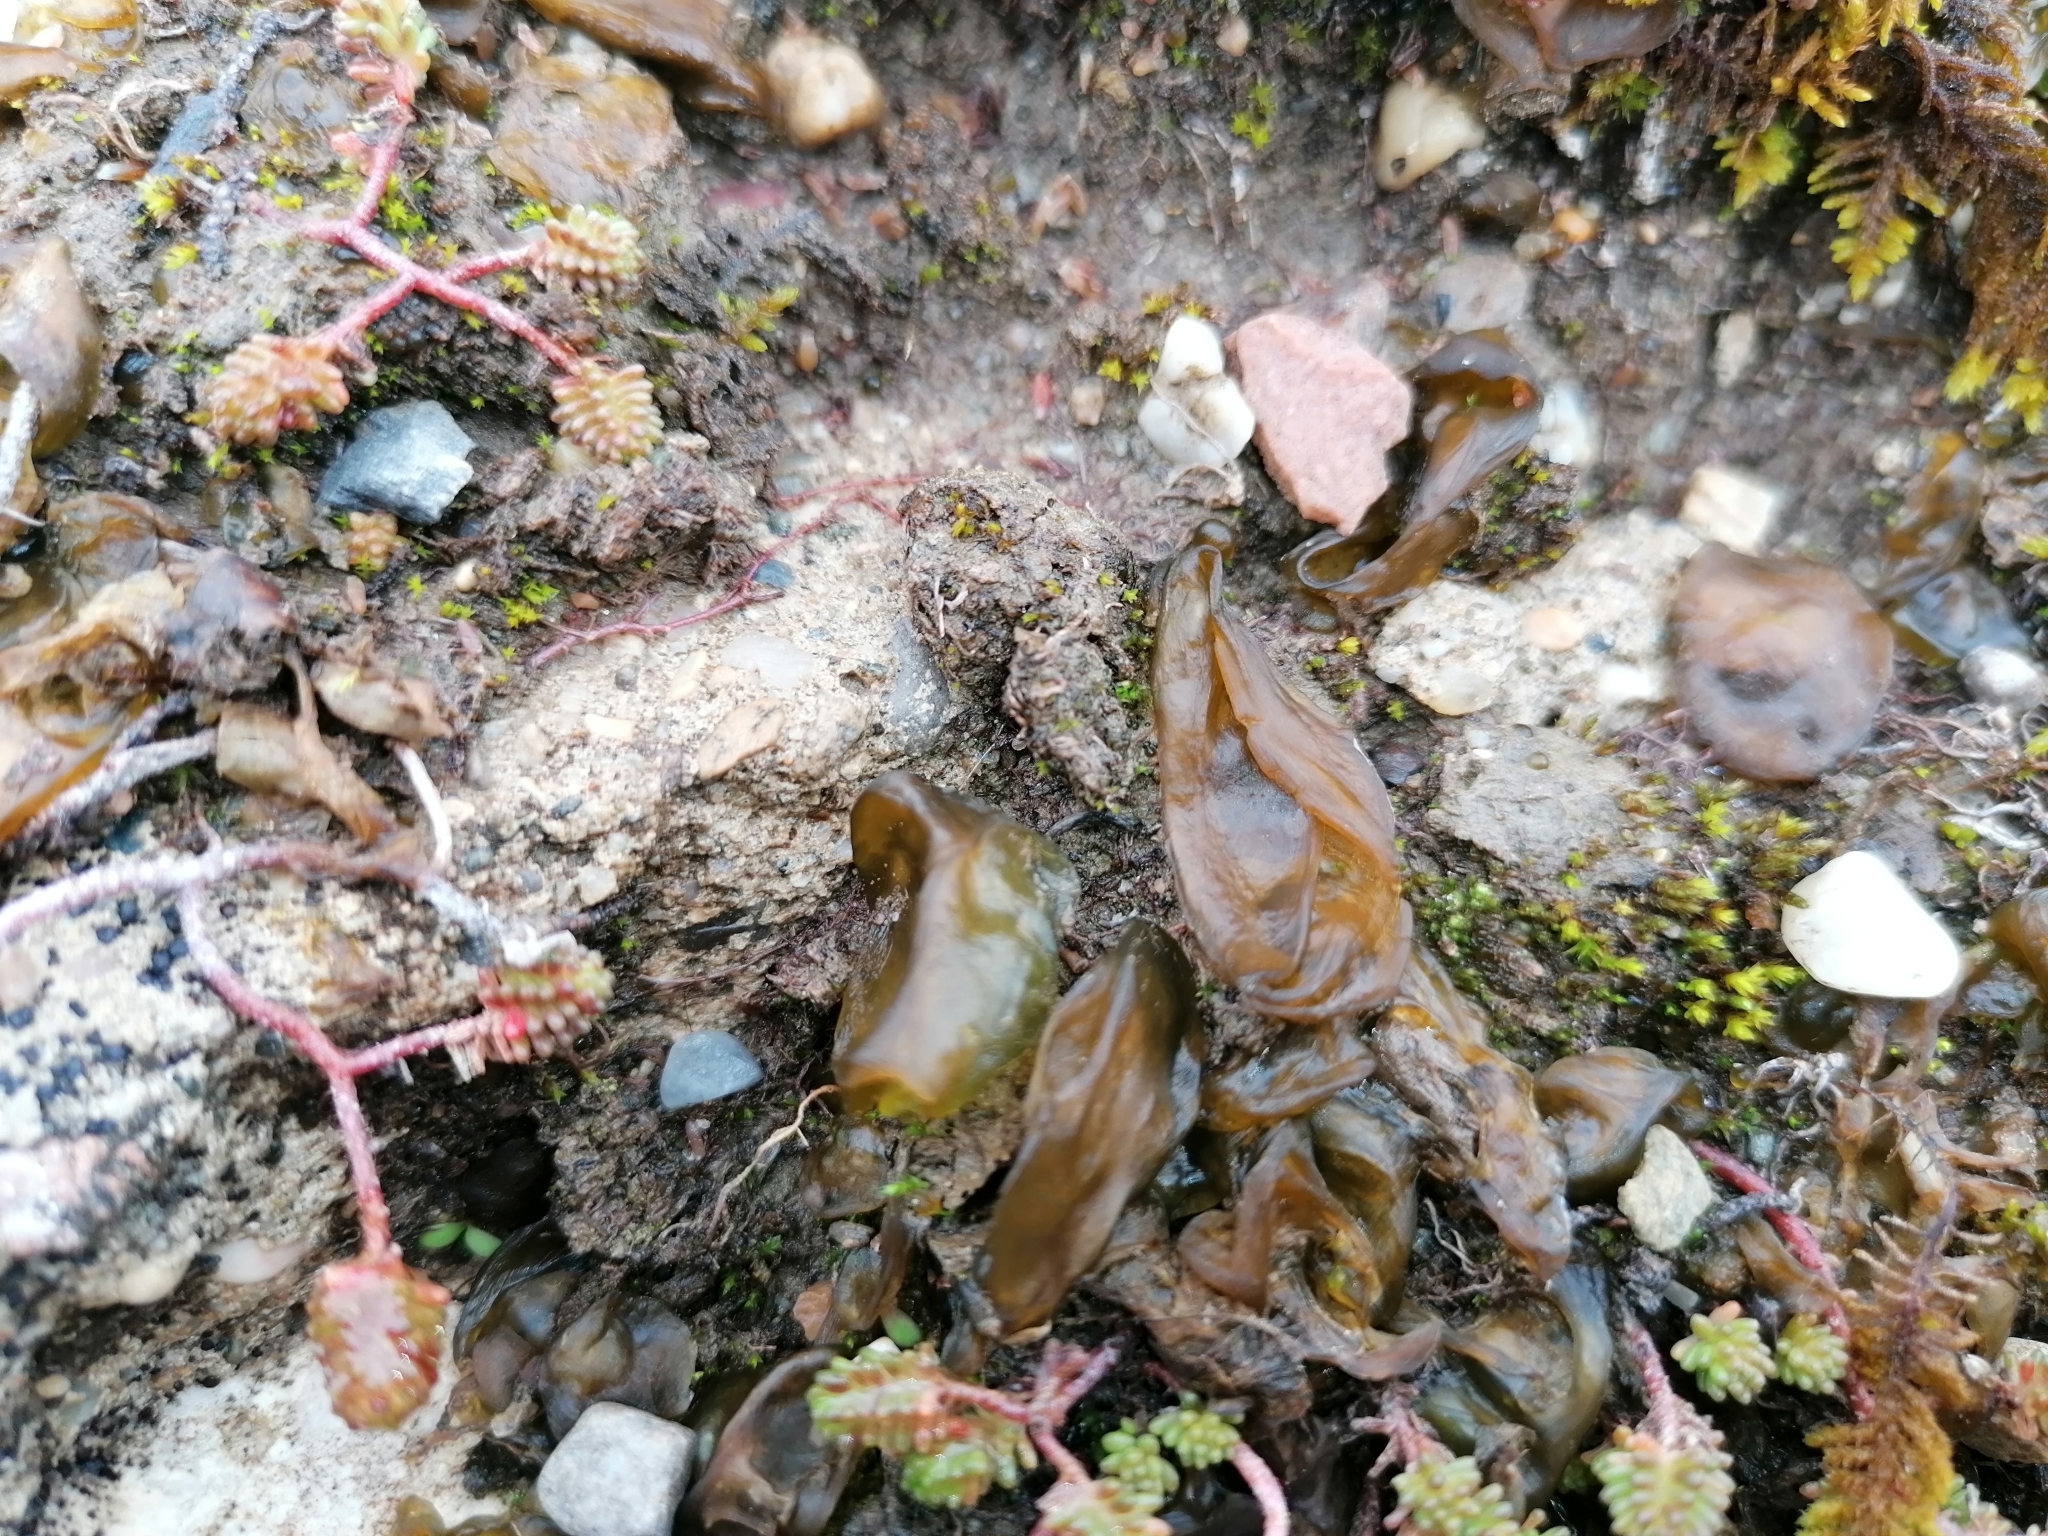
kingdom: Bacteria
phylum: Cyanobacteria
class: Cyanobacteriia
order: Cyanobacteriales
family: Nostocaceae
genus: Nostoc
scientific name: Nostoc commune
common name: Star jelly
